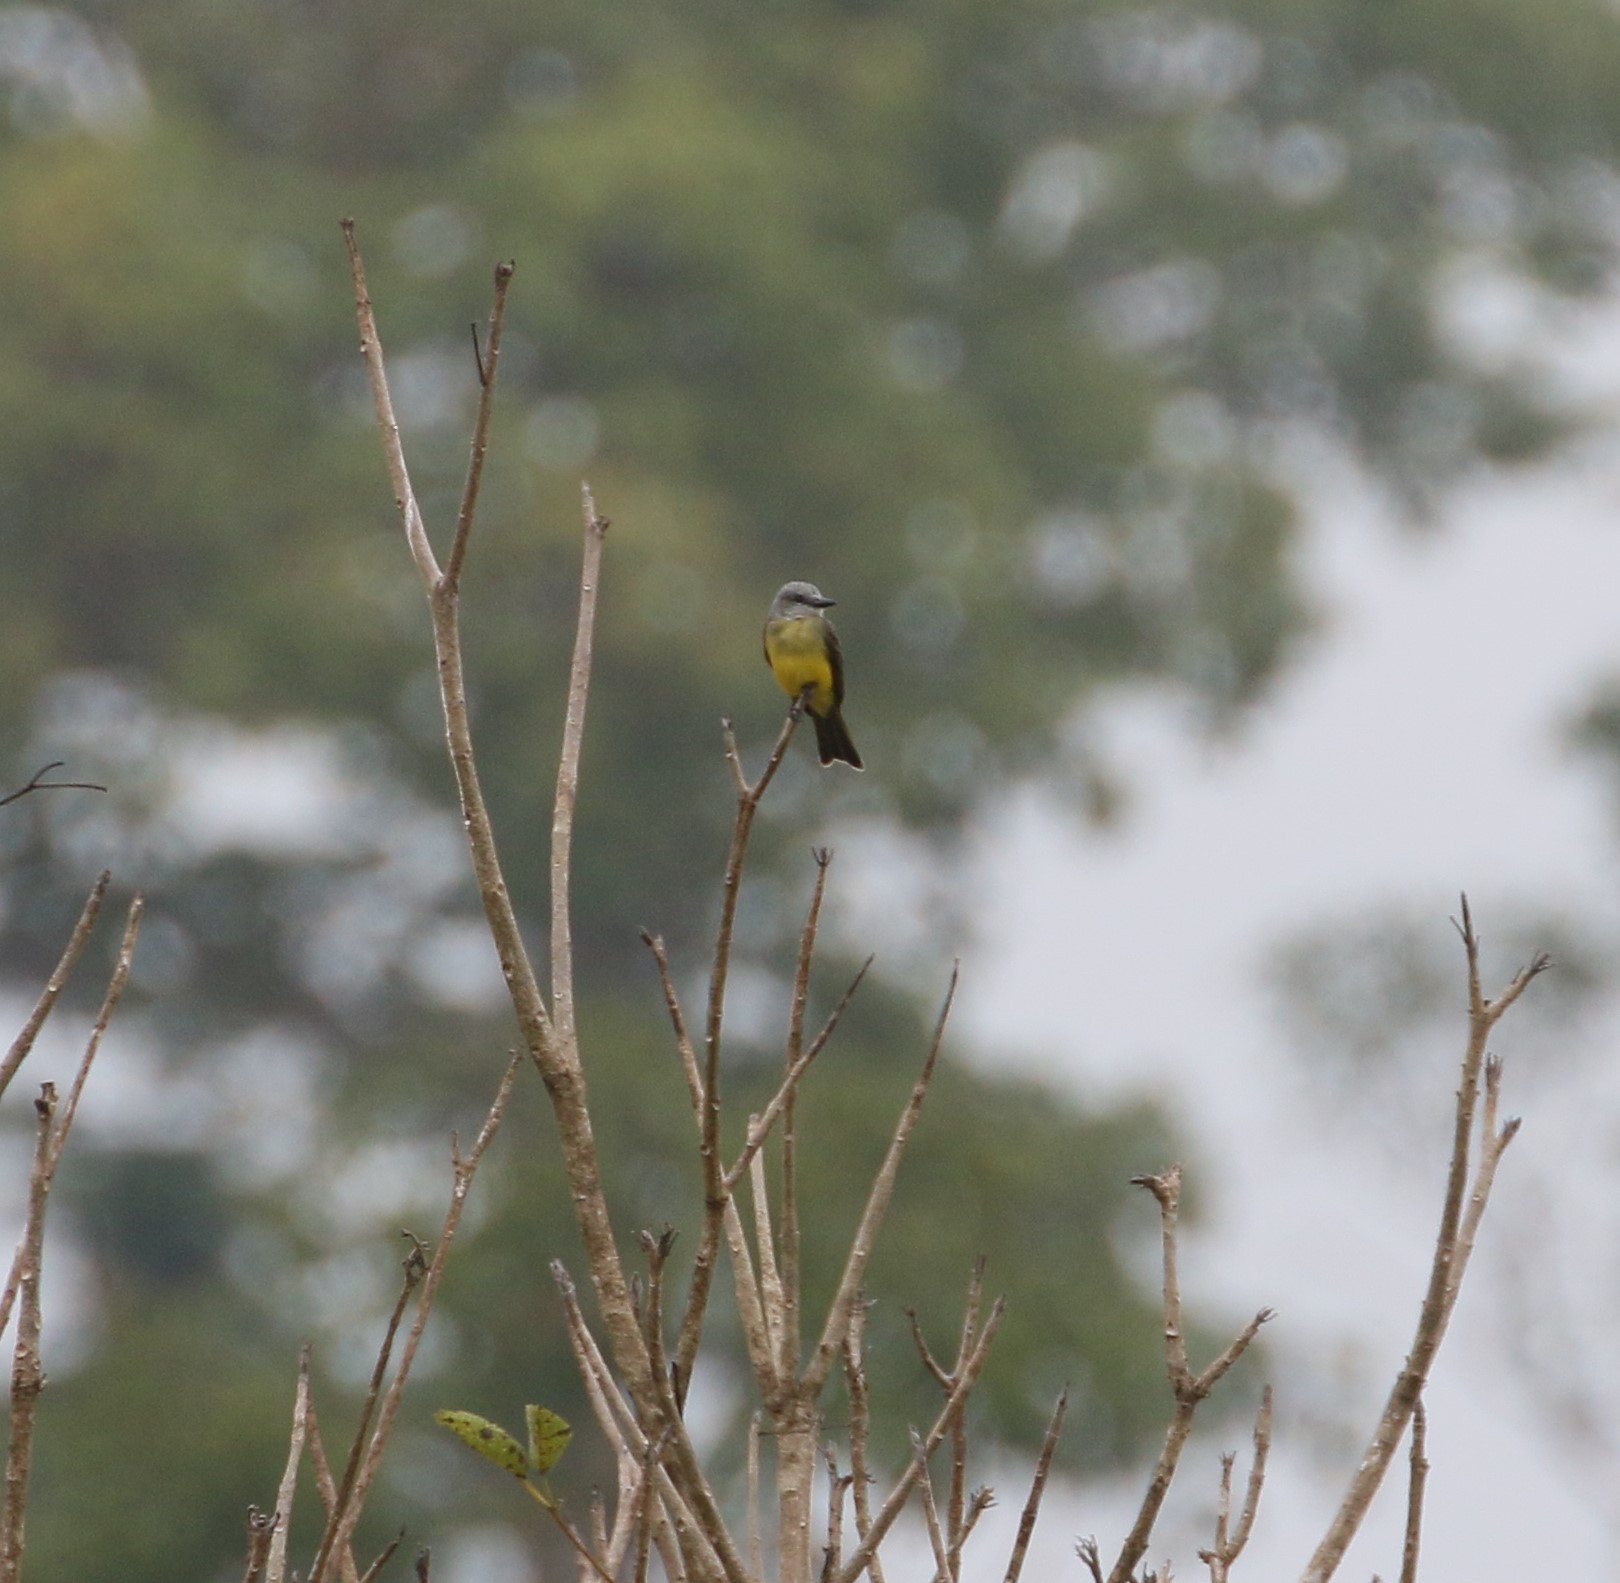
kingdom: Animalia
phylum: Chordata
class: Aves
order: Passeriformes
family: Tyrannidae
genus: Tyrannus
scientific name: Tyrannus melancholicus
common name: Tropical kingbird
